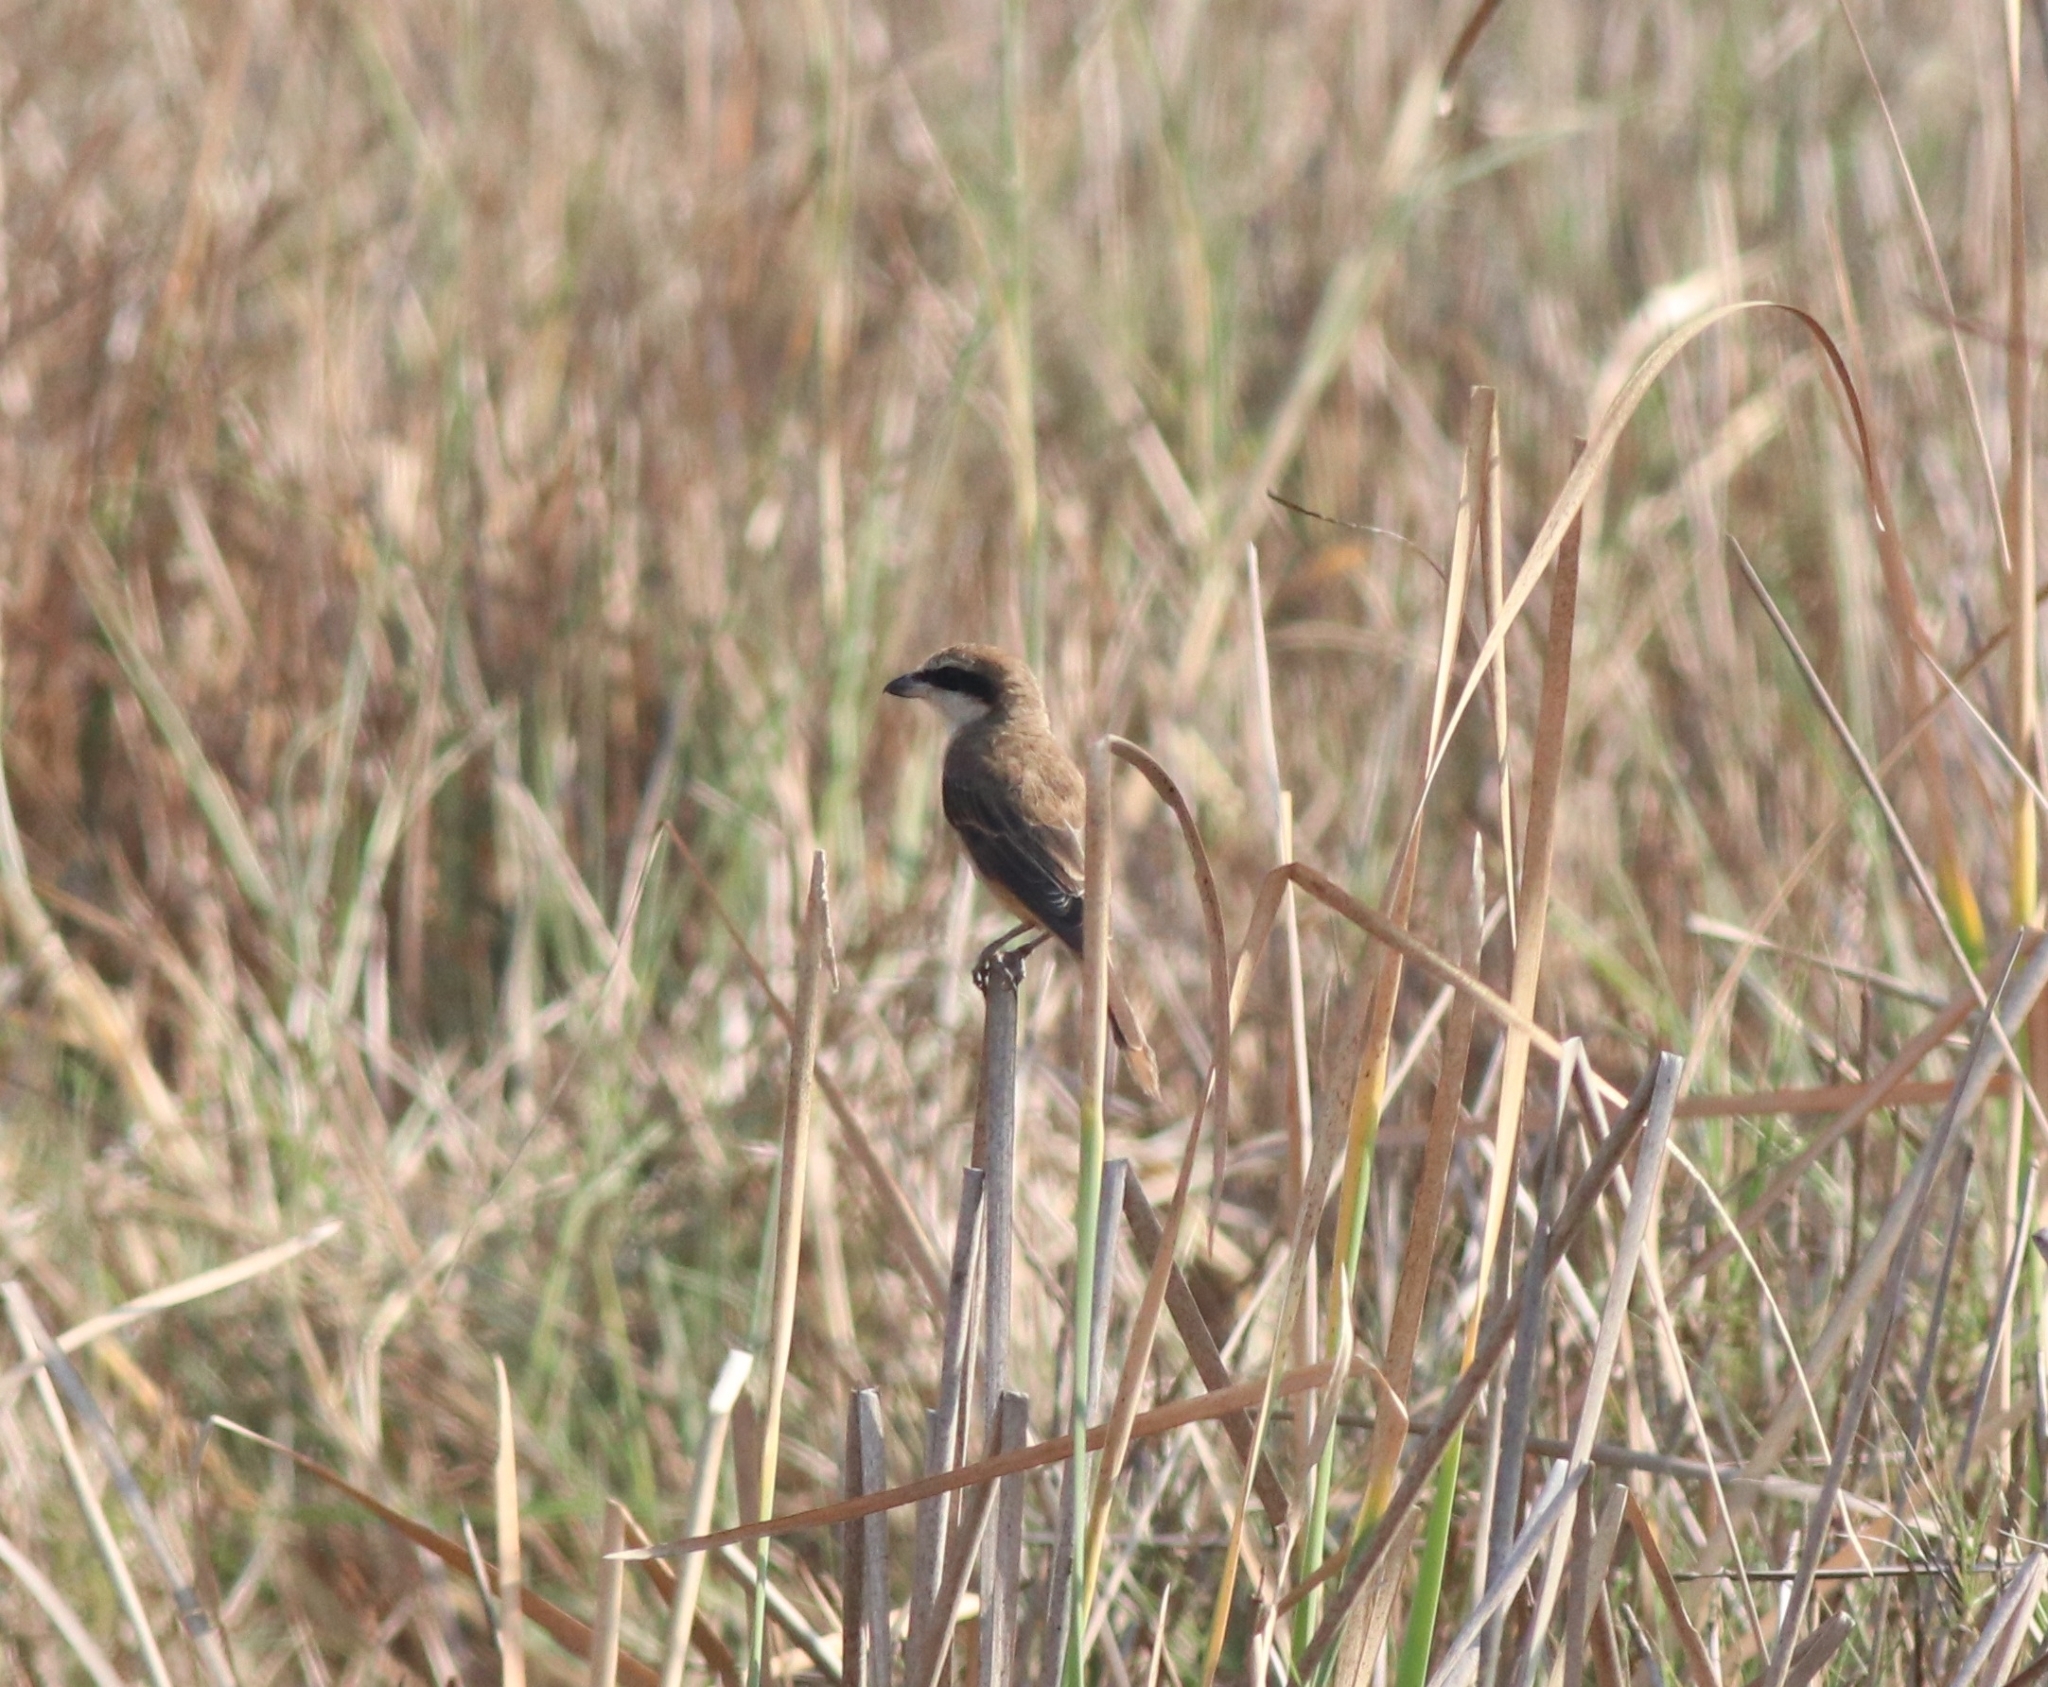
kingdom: Animalia
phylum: Chordata
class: Aves
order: Passeriformes
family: Laniidae
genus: Lanius
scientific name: Lanius cristatus
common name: Brown shrike
